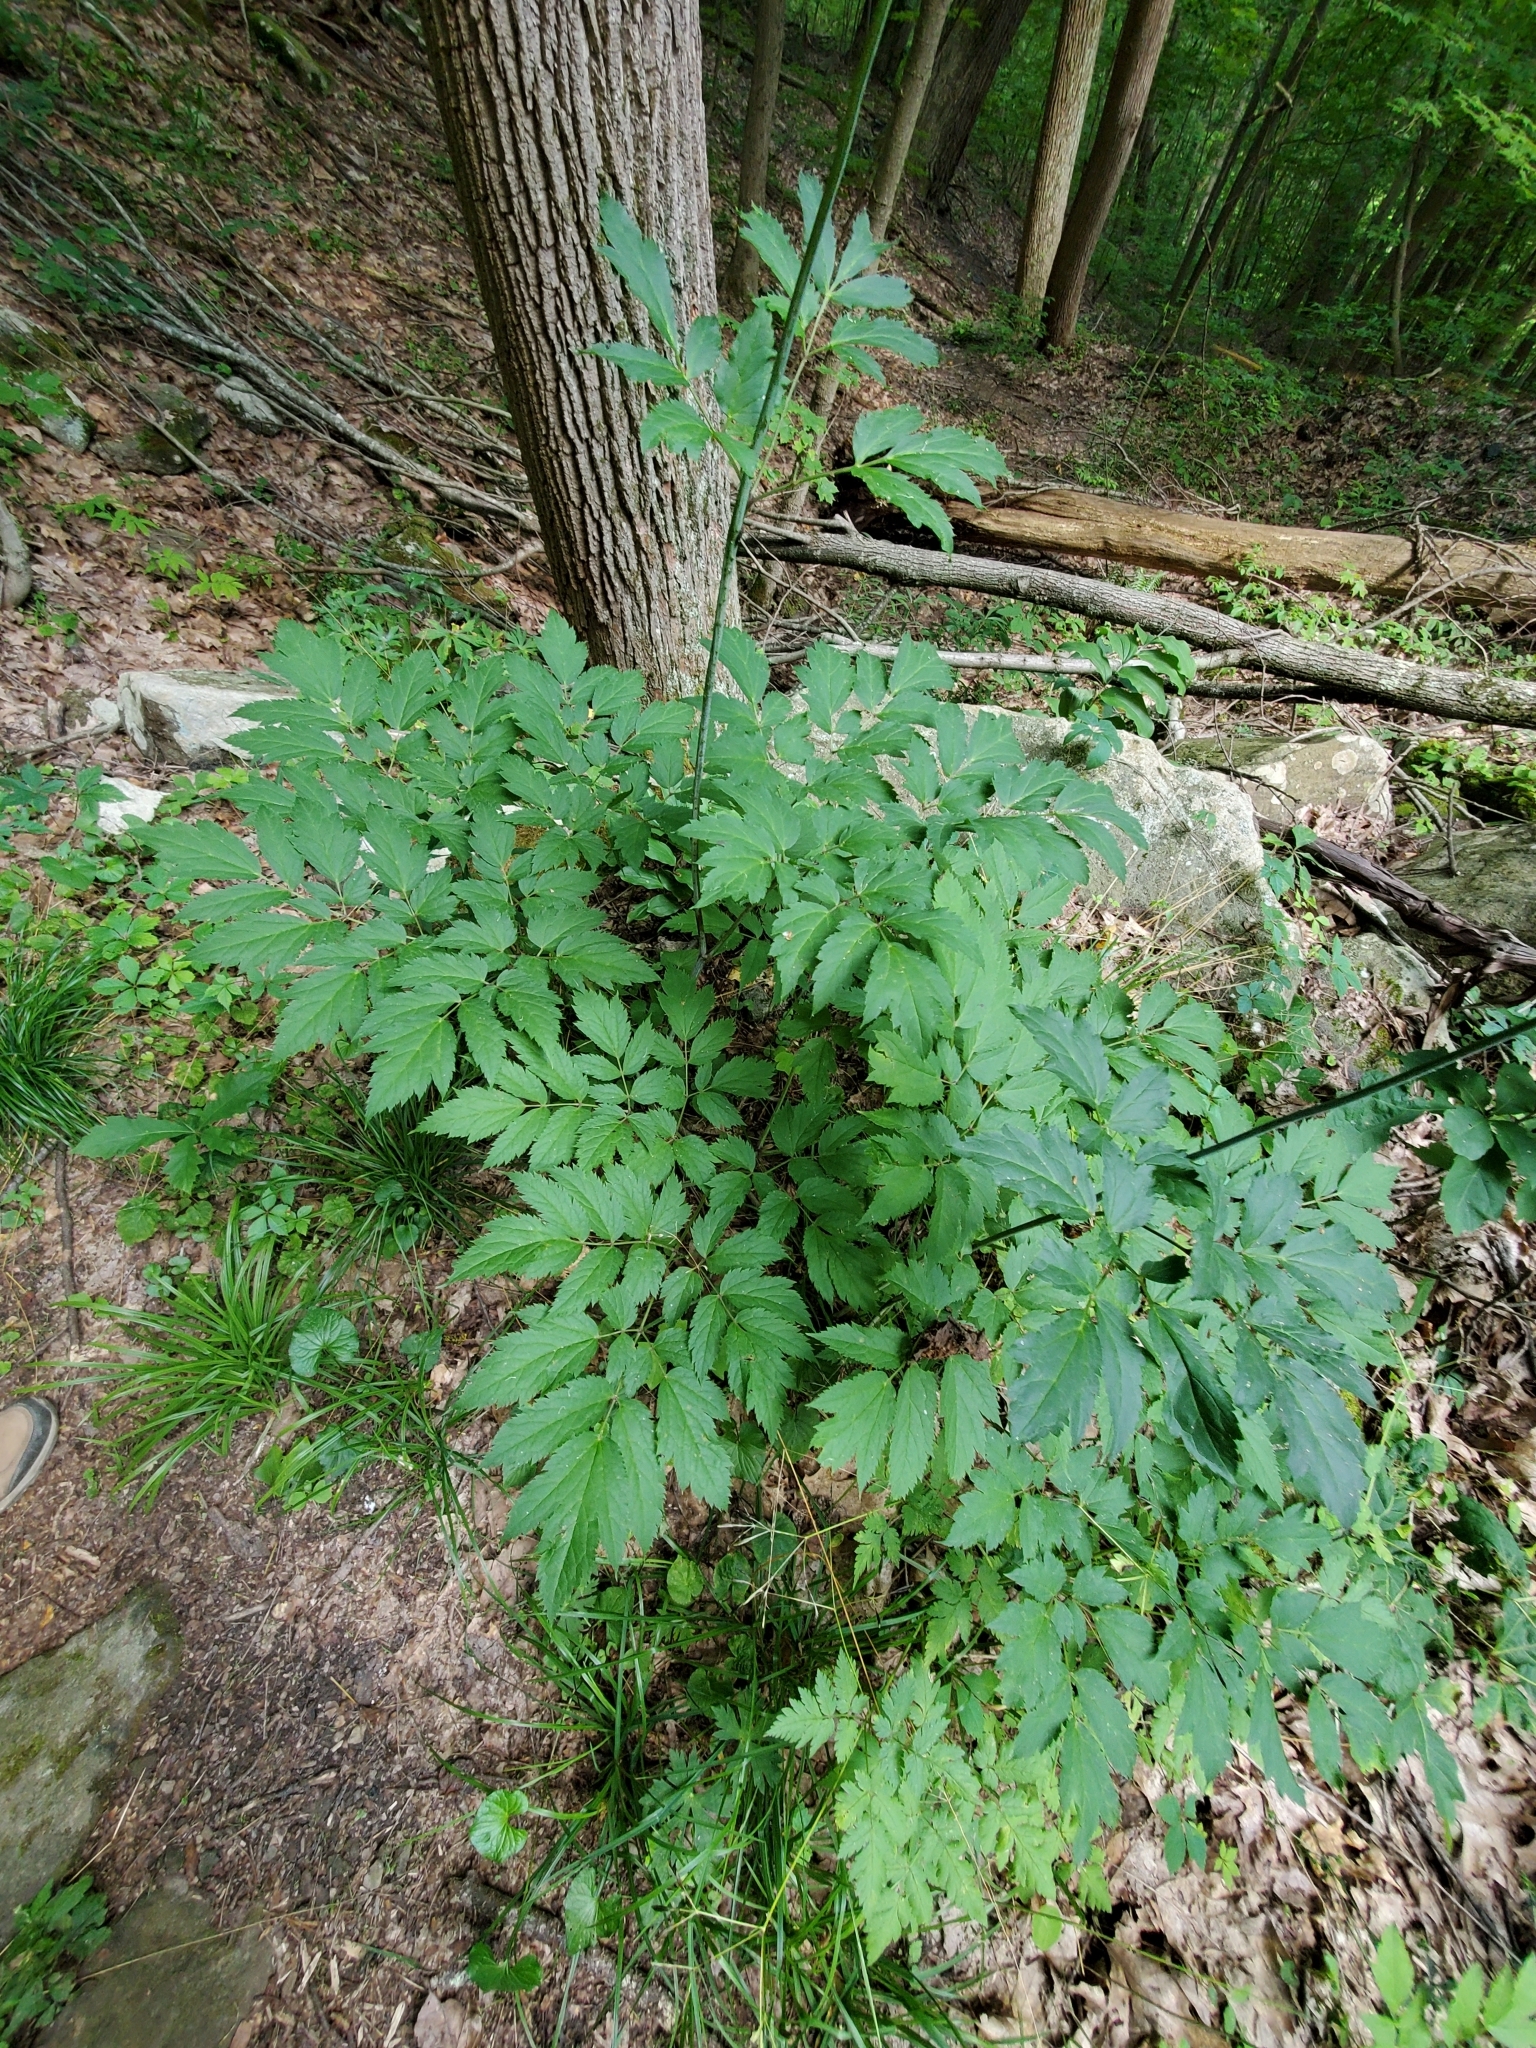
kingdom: Plantae
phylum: Tracheophyta
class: Magnoliopsida
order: Ranunculales
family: Ranunculaceae
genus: Actaea
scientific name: Actaea racemosa
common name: Black cohosh
